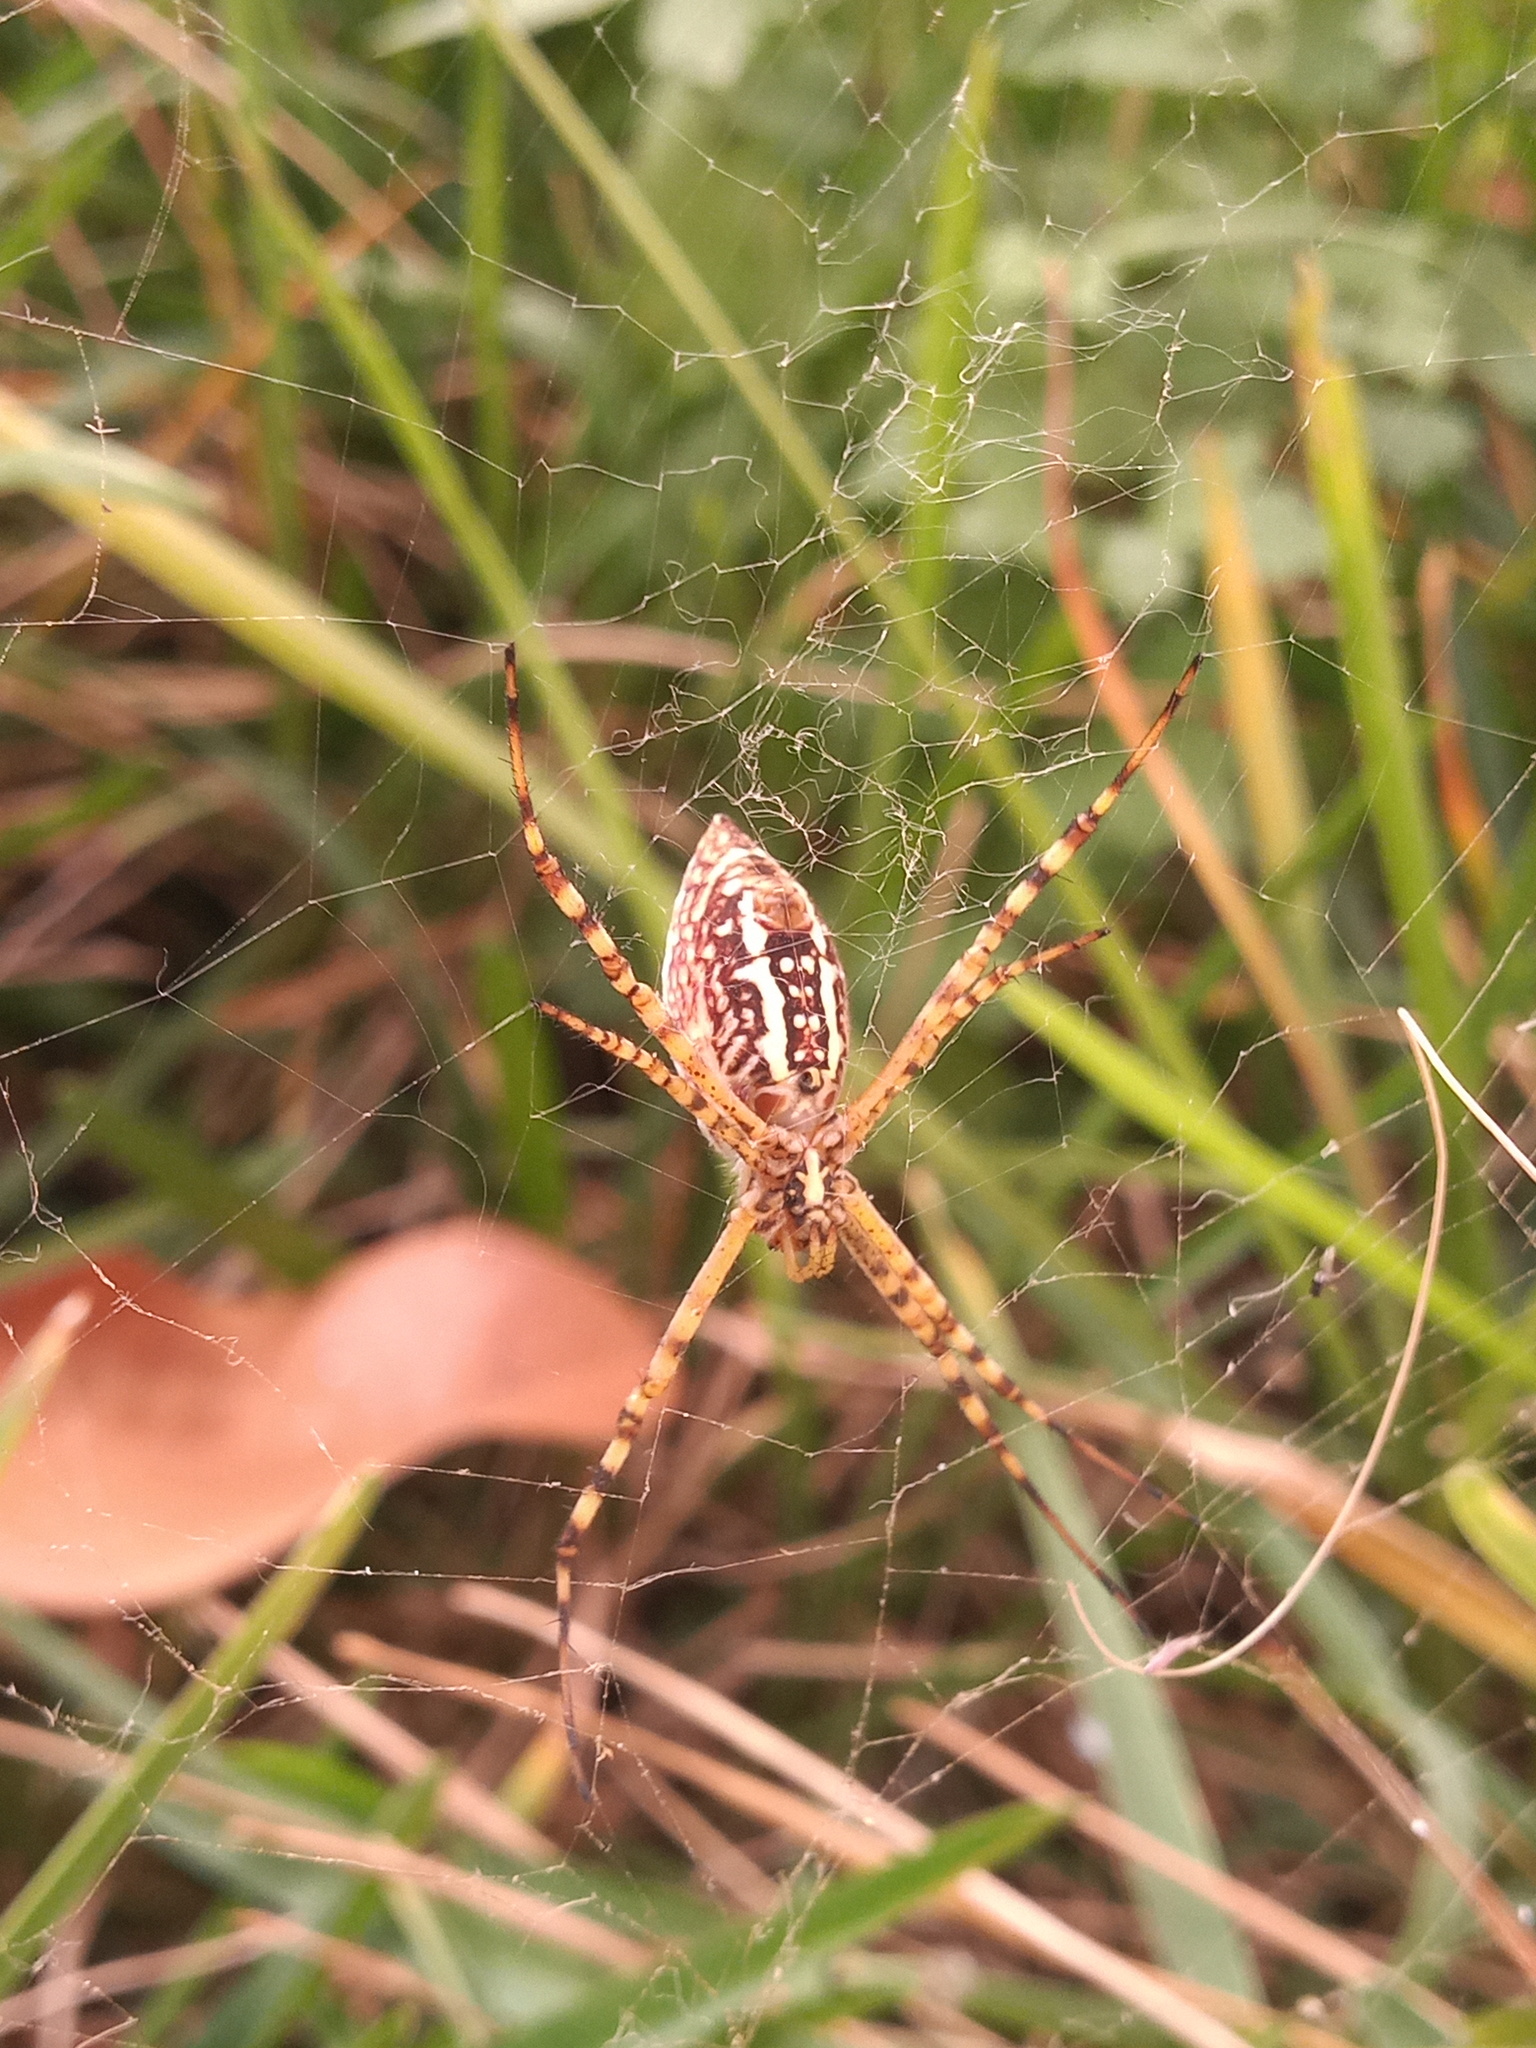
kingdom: Animalia
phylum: Arthropoda
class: Arachnida
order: Araneae
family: Araneidae
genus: Argiope
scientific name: Argiope trifasciata
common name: Banded garden spider
